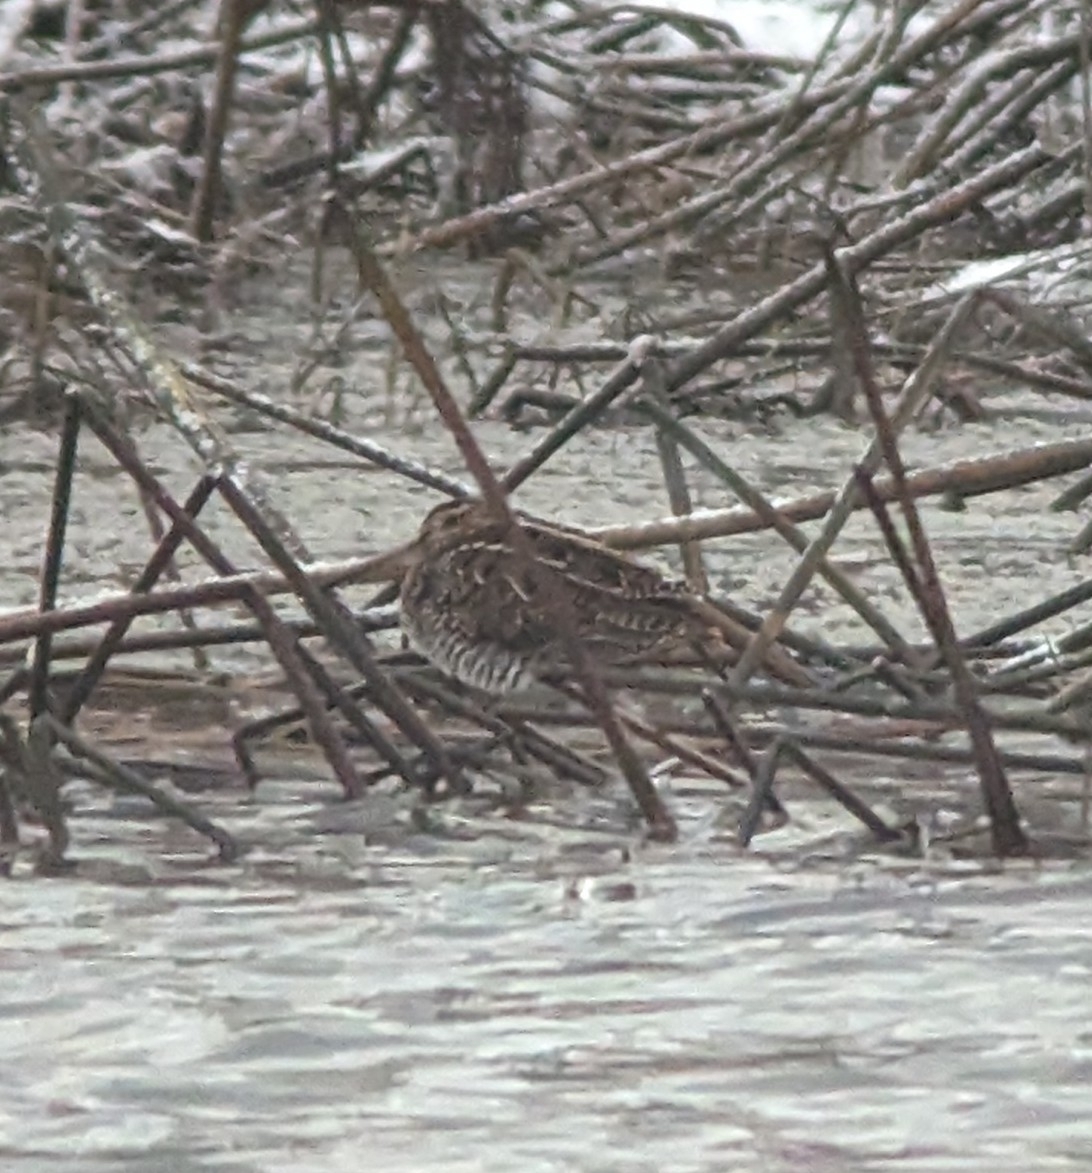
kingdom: Animalia
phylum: Chordata
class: Aves
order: Charadriiformes
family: Scolopacidae
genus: Gallinago
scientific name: Gallinago delicata
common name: Wilson's snipe
